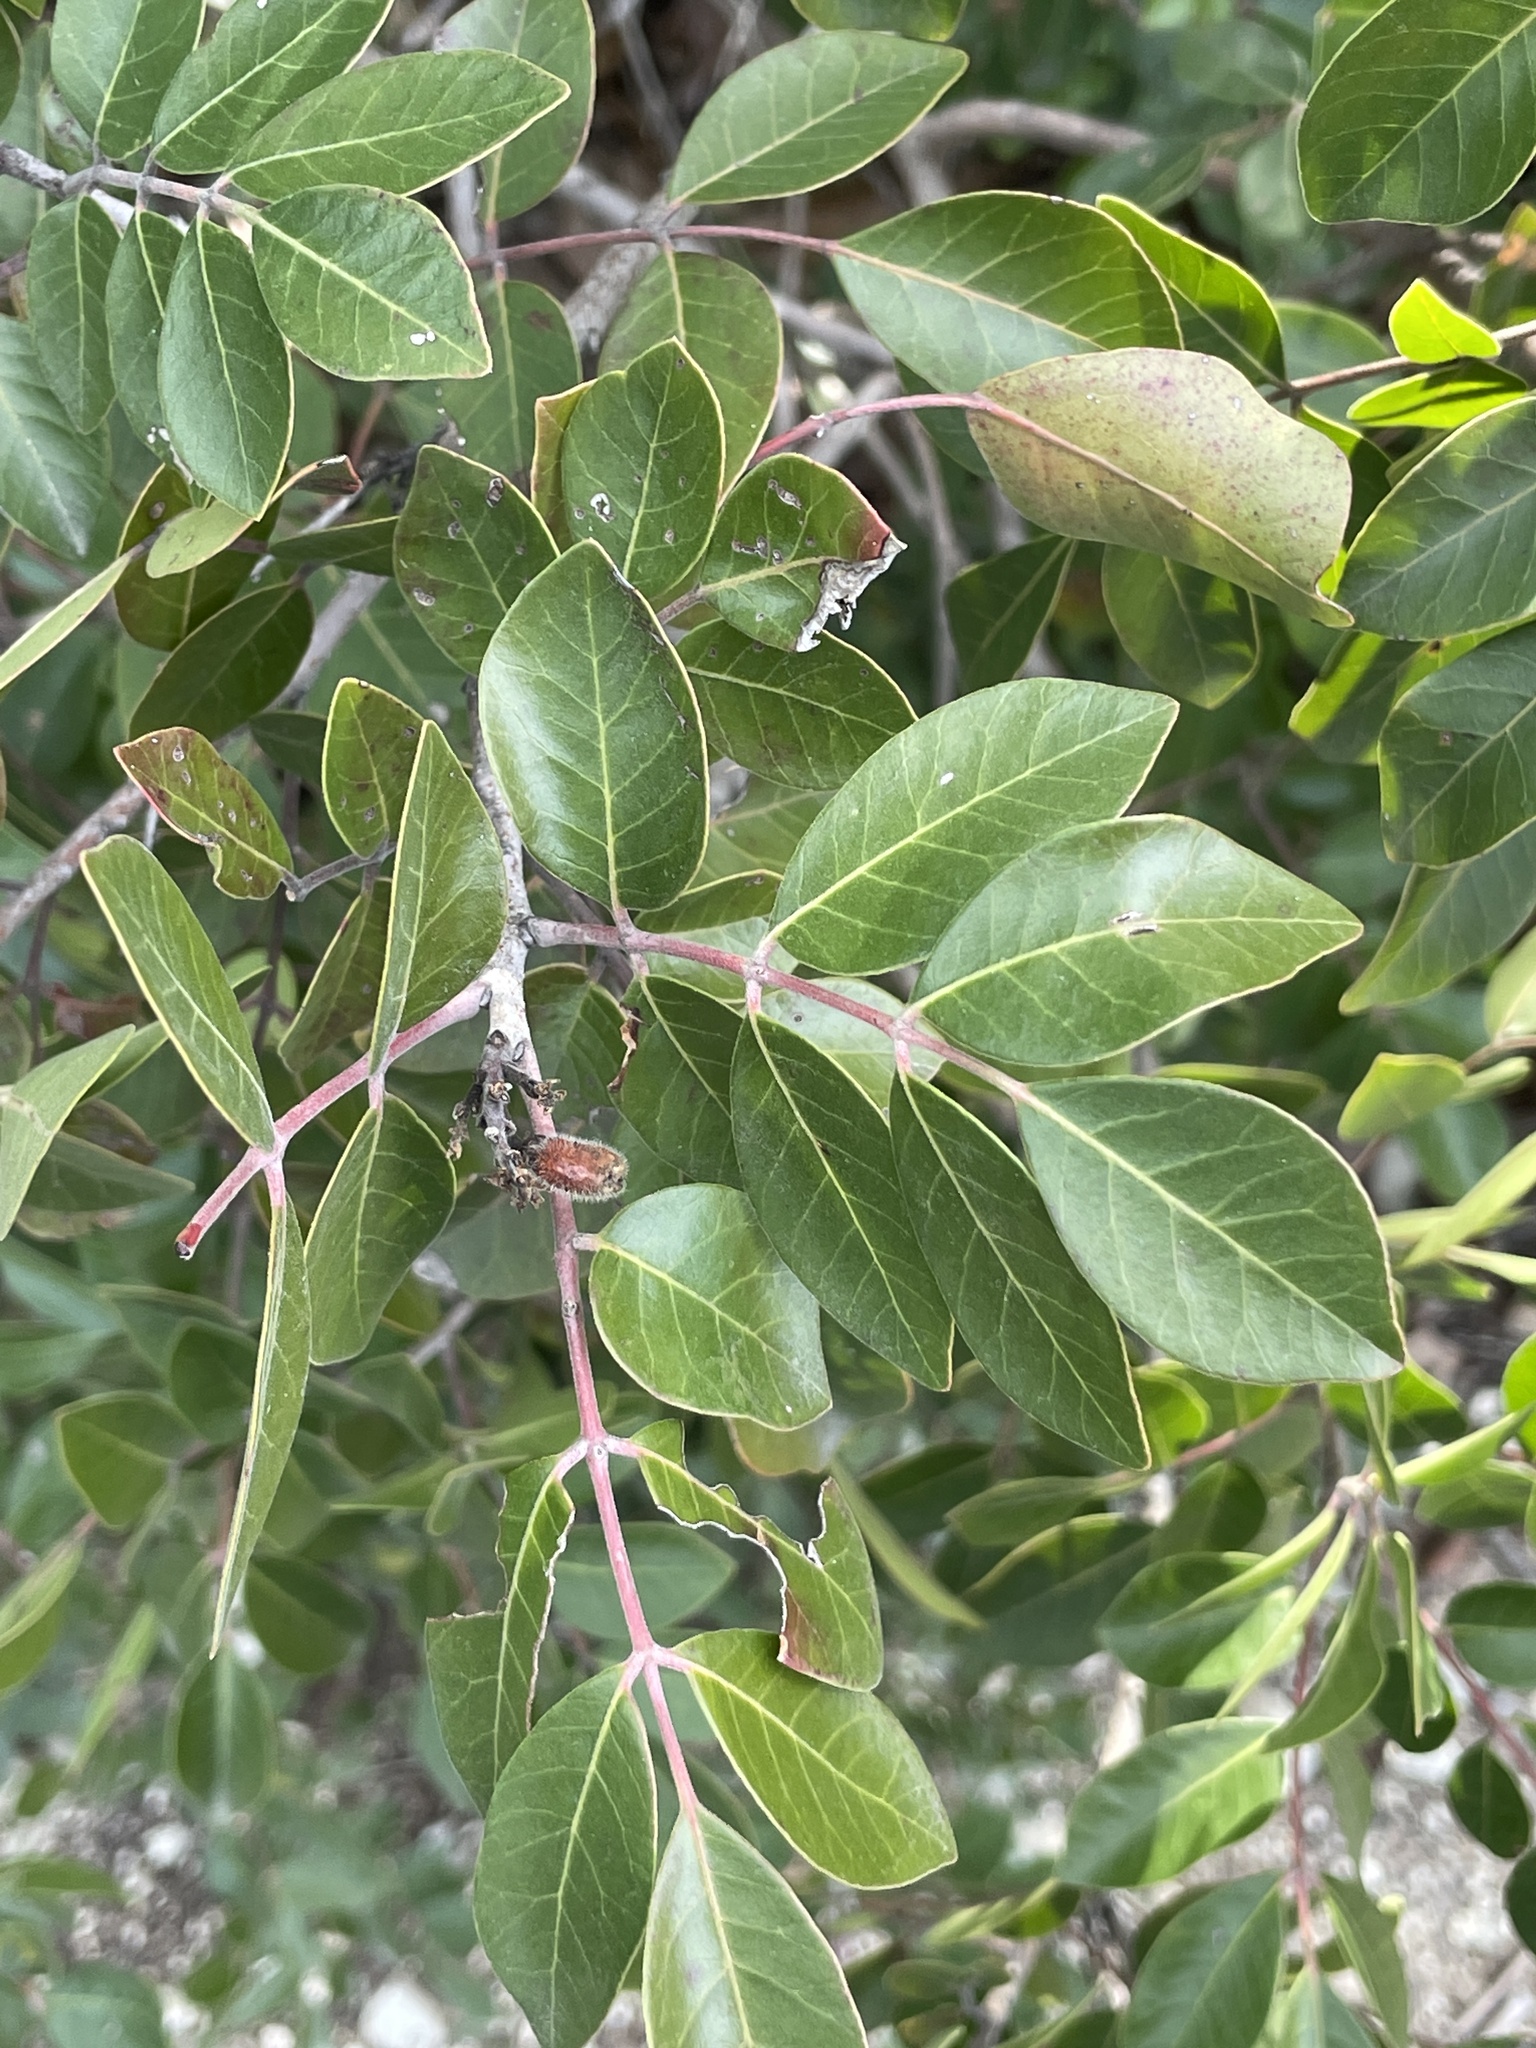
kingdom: Plantae
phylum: Tracheophyta
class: Magnoliopsida
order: Sapindales
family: Anacardiaceae
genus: Rhus
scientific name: Rhus virens
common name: Evergreen sumac
